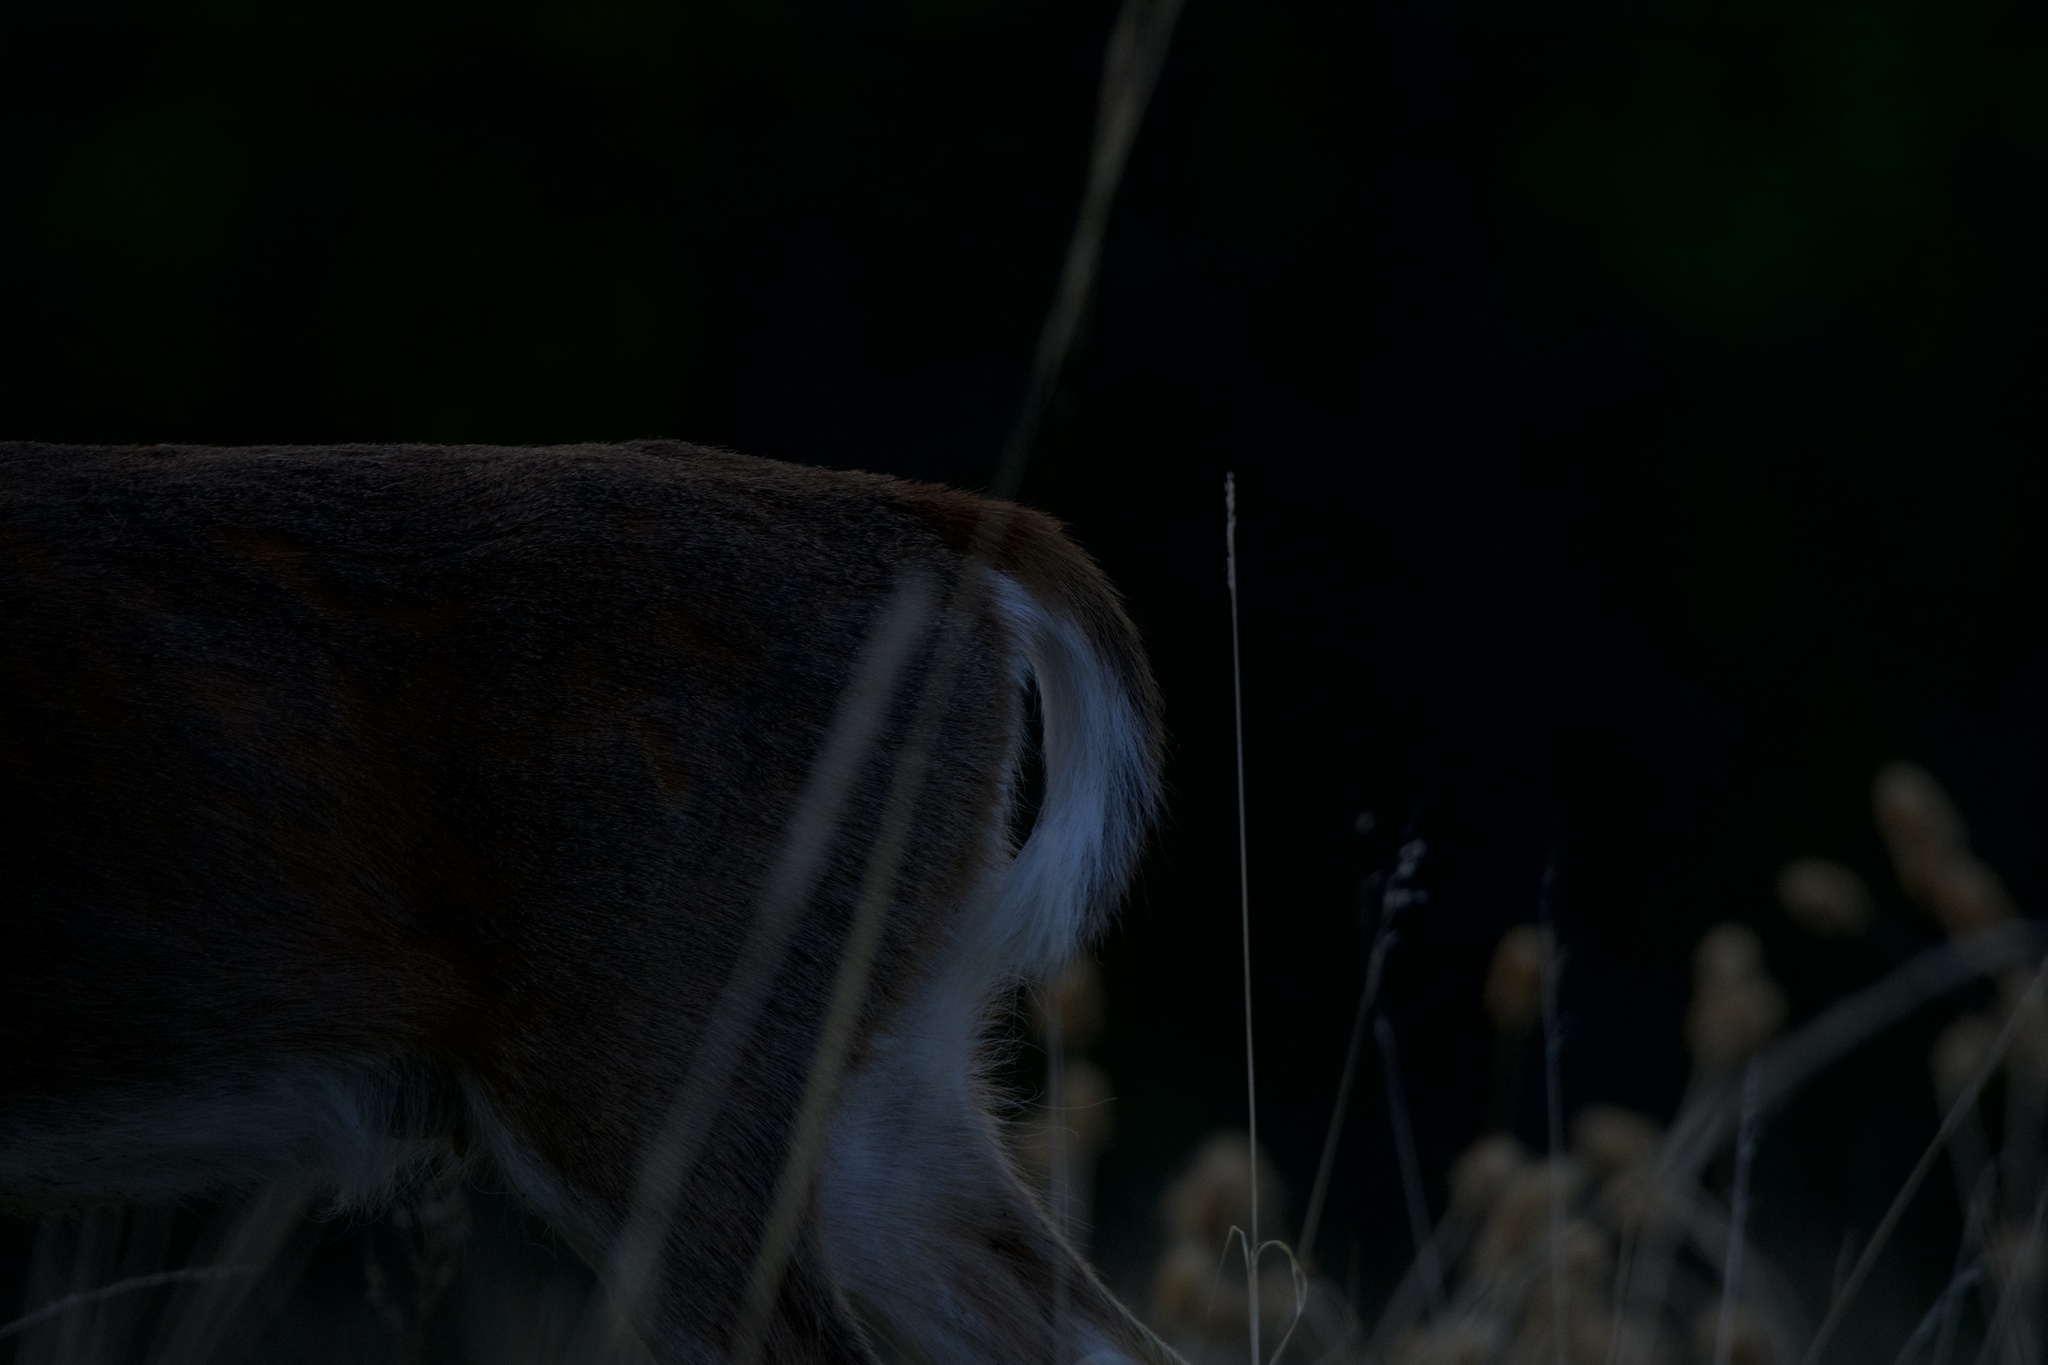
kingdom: Animalia
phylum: Chordata
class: Mammalia
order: Artiodactyla
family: Cervidae
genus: Odocoileus
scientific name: Odocoileus virginianus
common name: White-tailed deer
